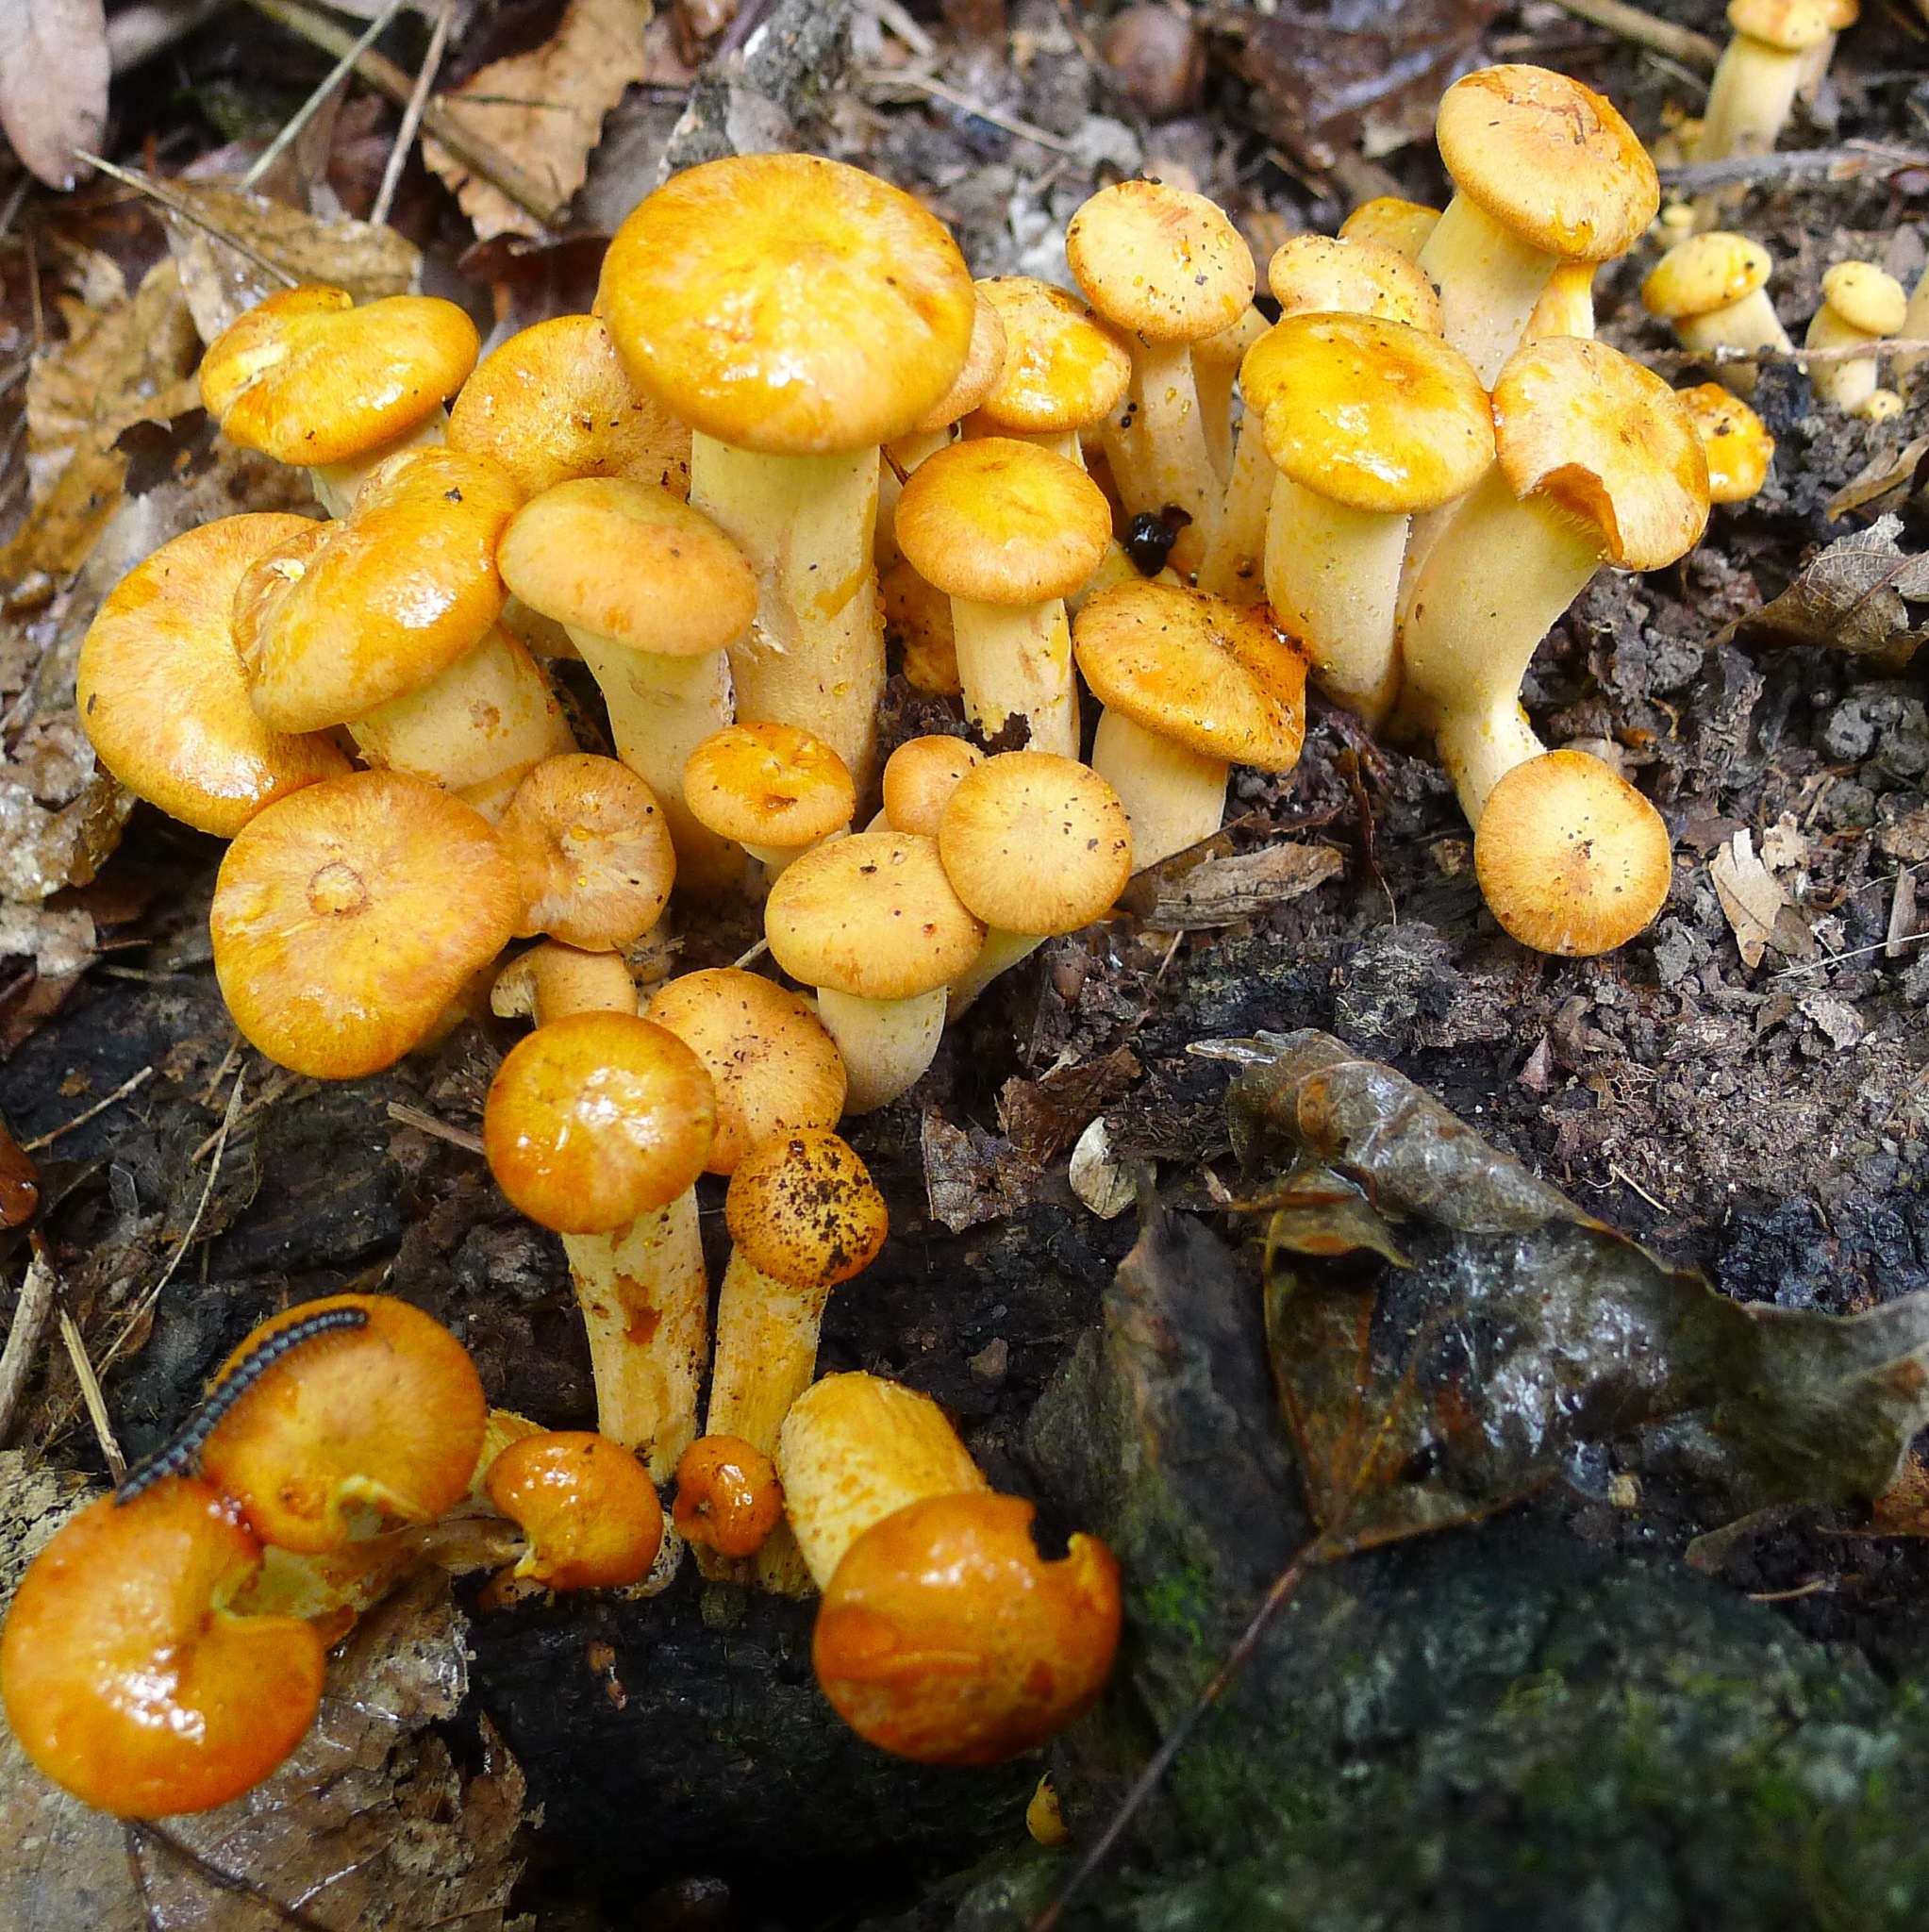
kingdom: Fungi
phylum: Basidiomycota
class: Agaricomycetes
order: Agaricales
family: Omphalotaceae
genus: Omphalotus
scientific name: Omphalotus illudens
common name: Jack o lantern
